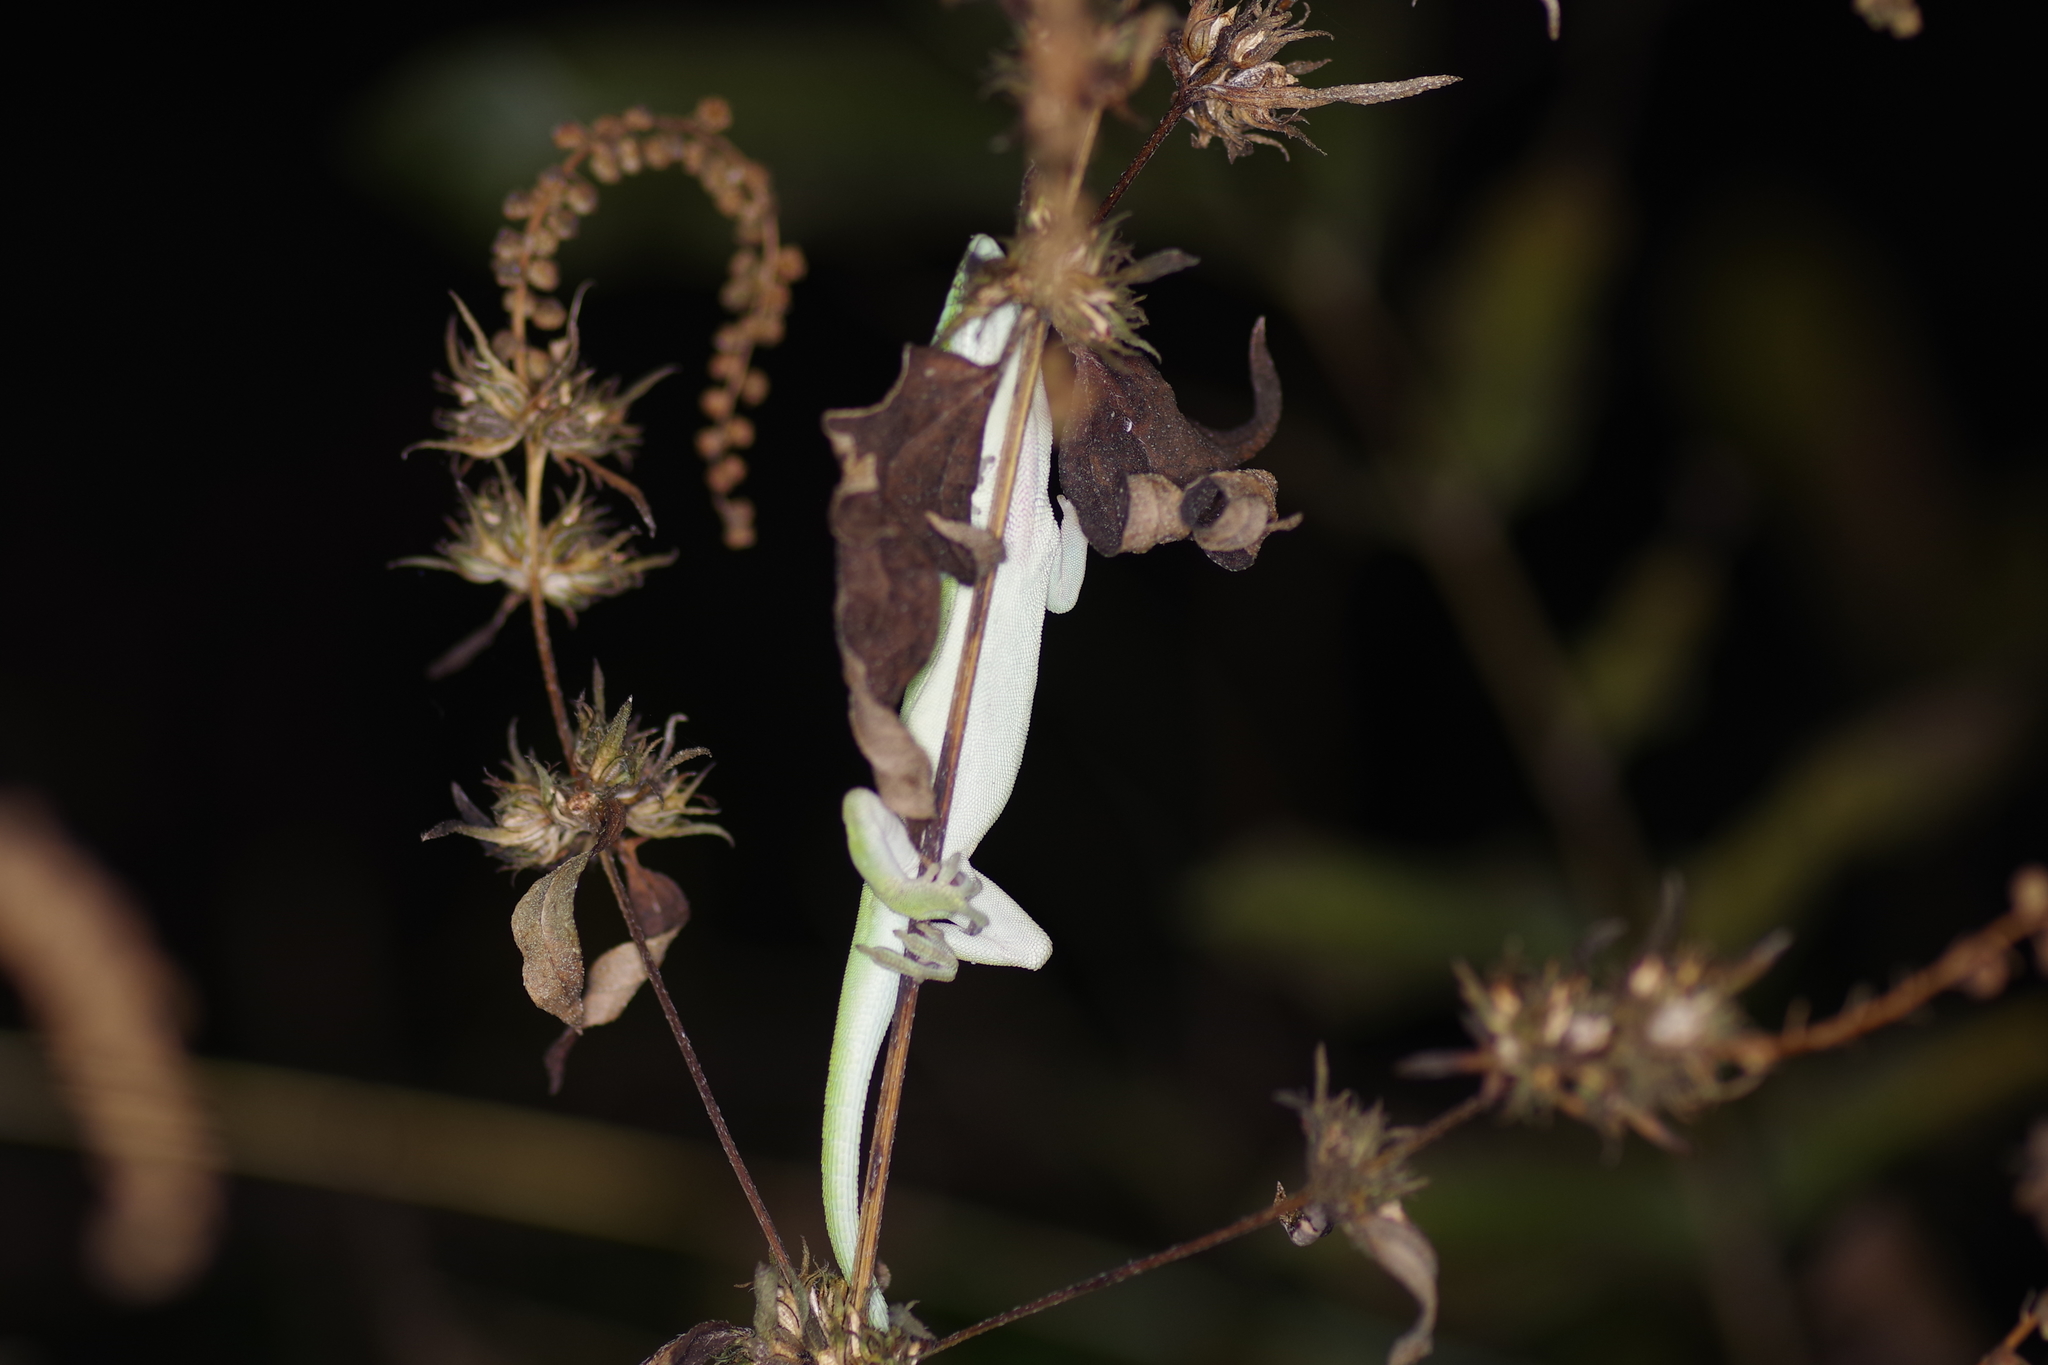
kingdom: Animalia
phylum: Chordata
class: Squamata
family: Dactyloidae
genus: Anolis
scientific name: Anolis carolinensis
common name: Green anole
